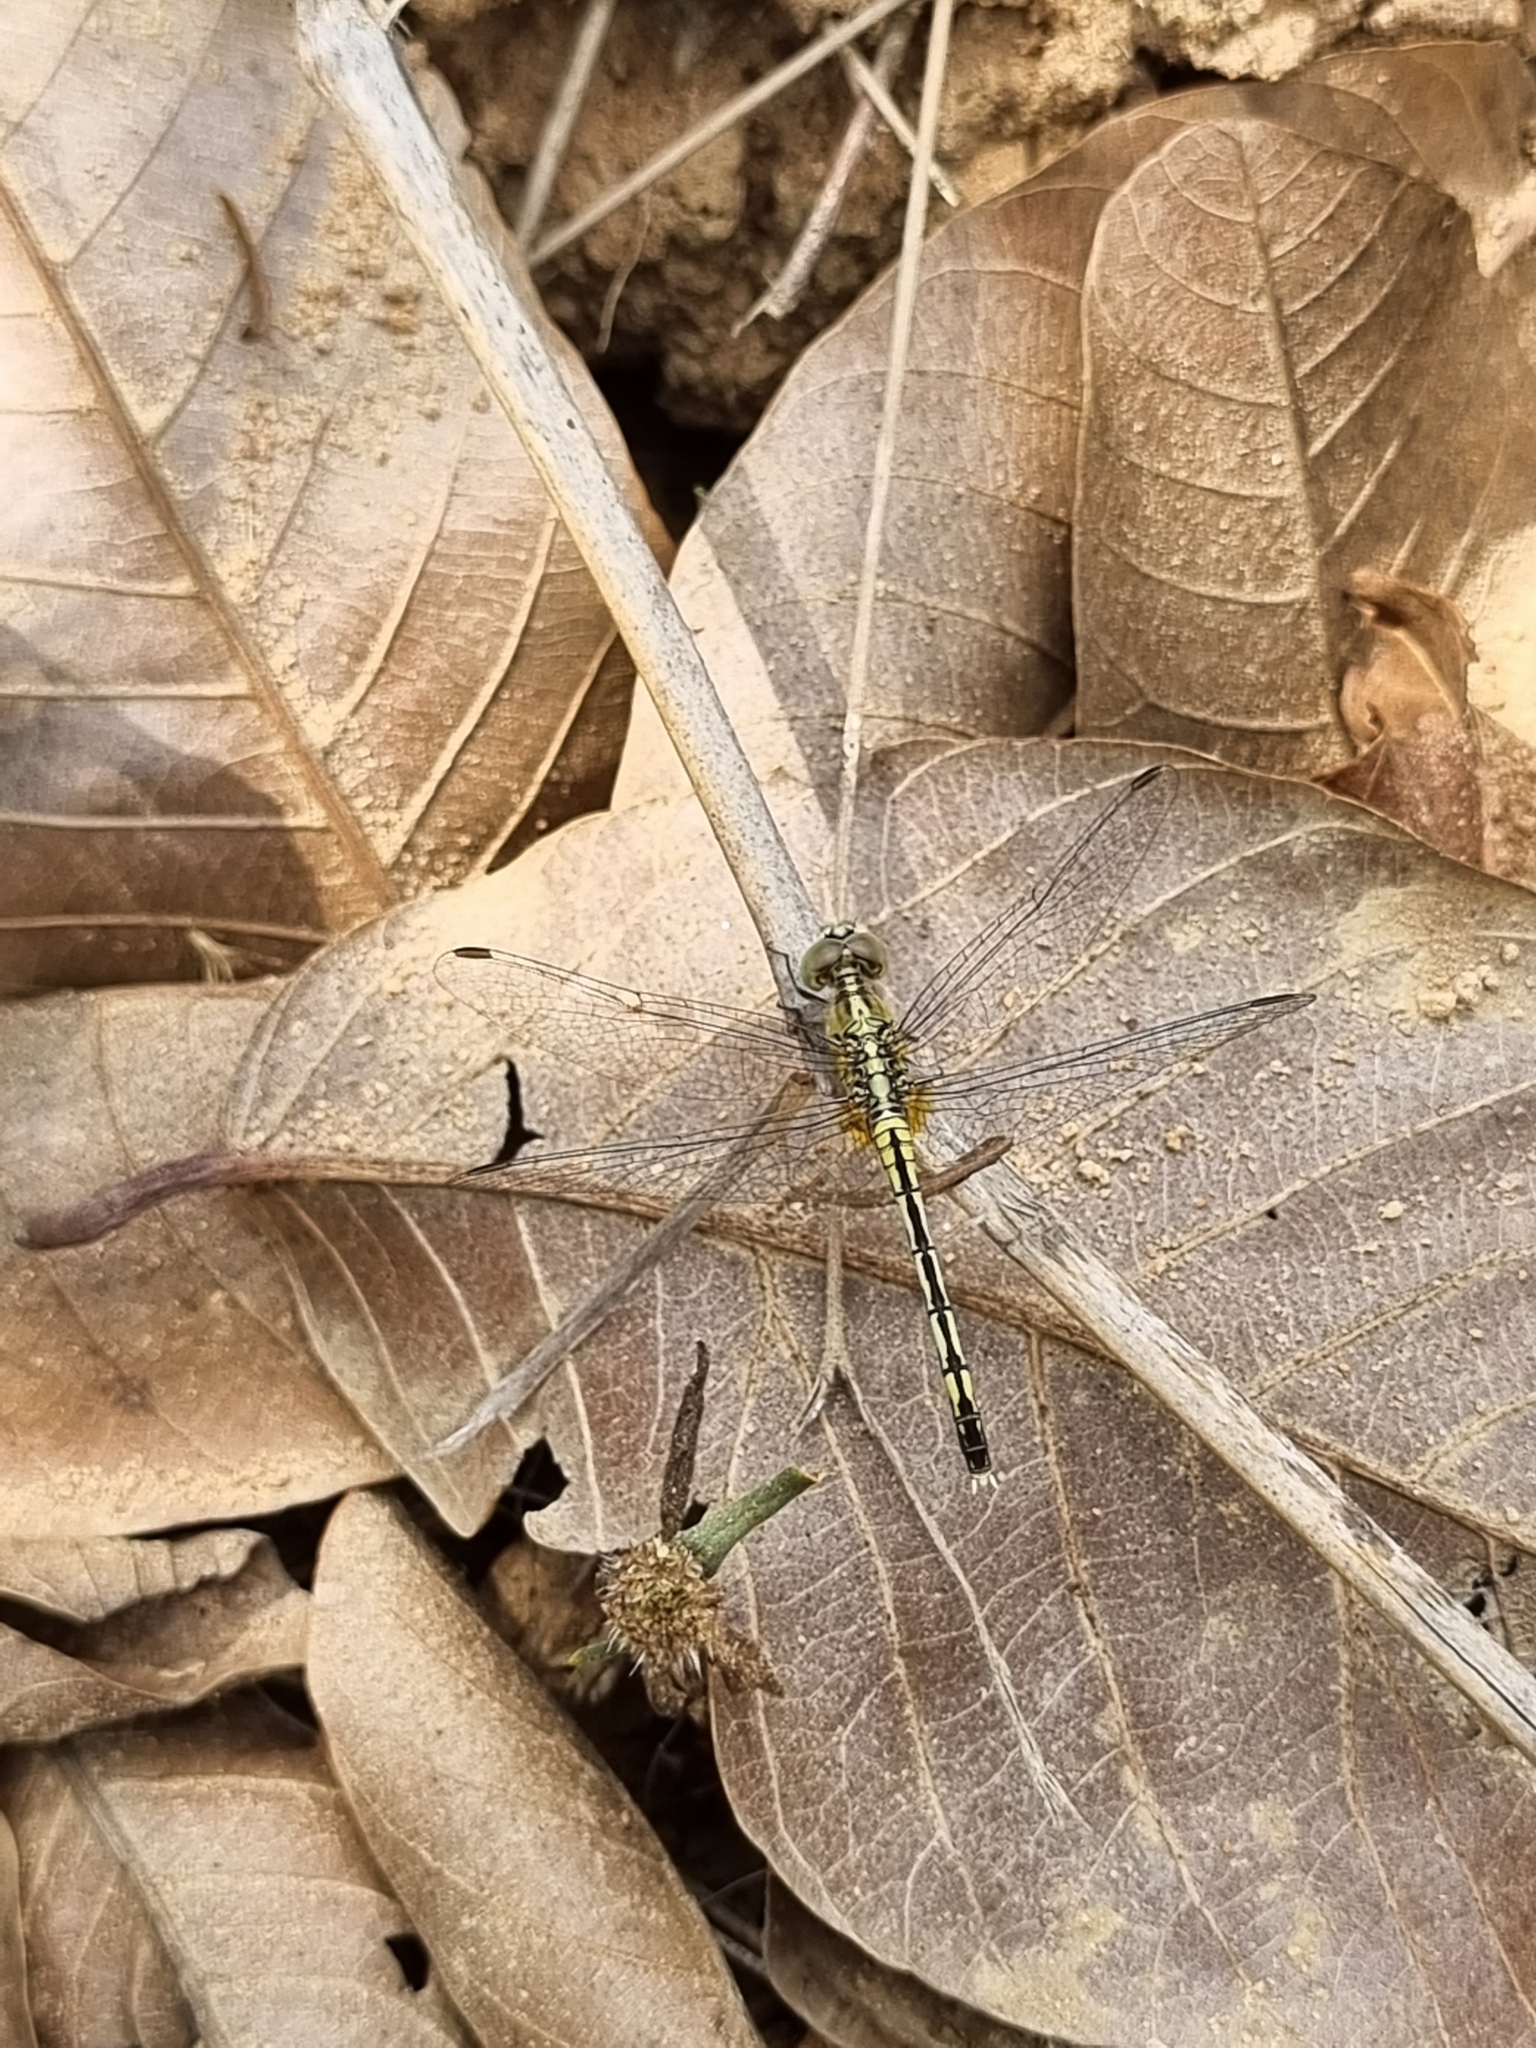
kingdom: Animalia
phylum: Arthropoda
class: Insecta
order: Odonata
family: Libellulidae
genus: Diplacodes
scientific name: Diplacodes trivialis
